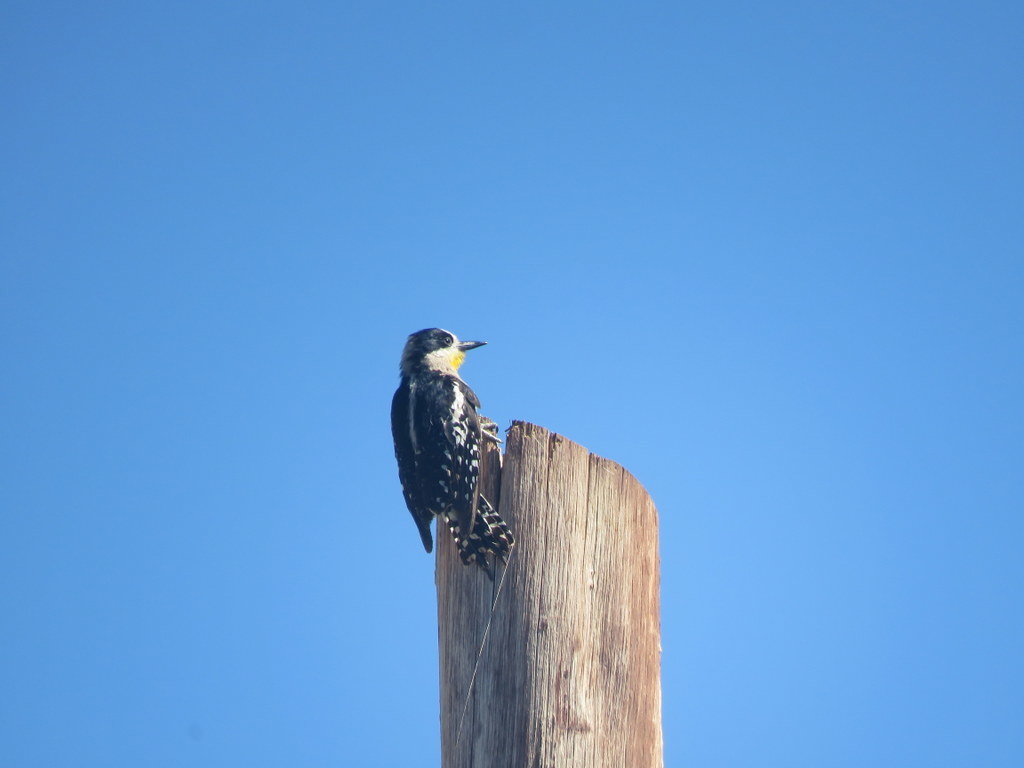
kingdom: Animalia
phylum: Chordata
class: Aves
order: Piciformes
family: Picidae
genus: Melanerpes
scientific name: Melanerpes cactorum
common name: White-fronted woodpecker
